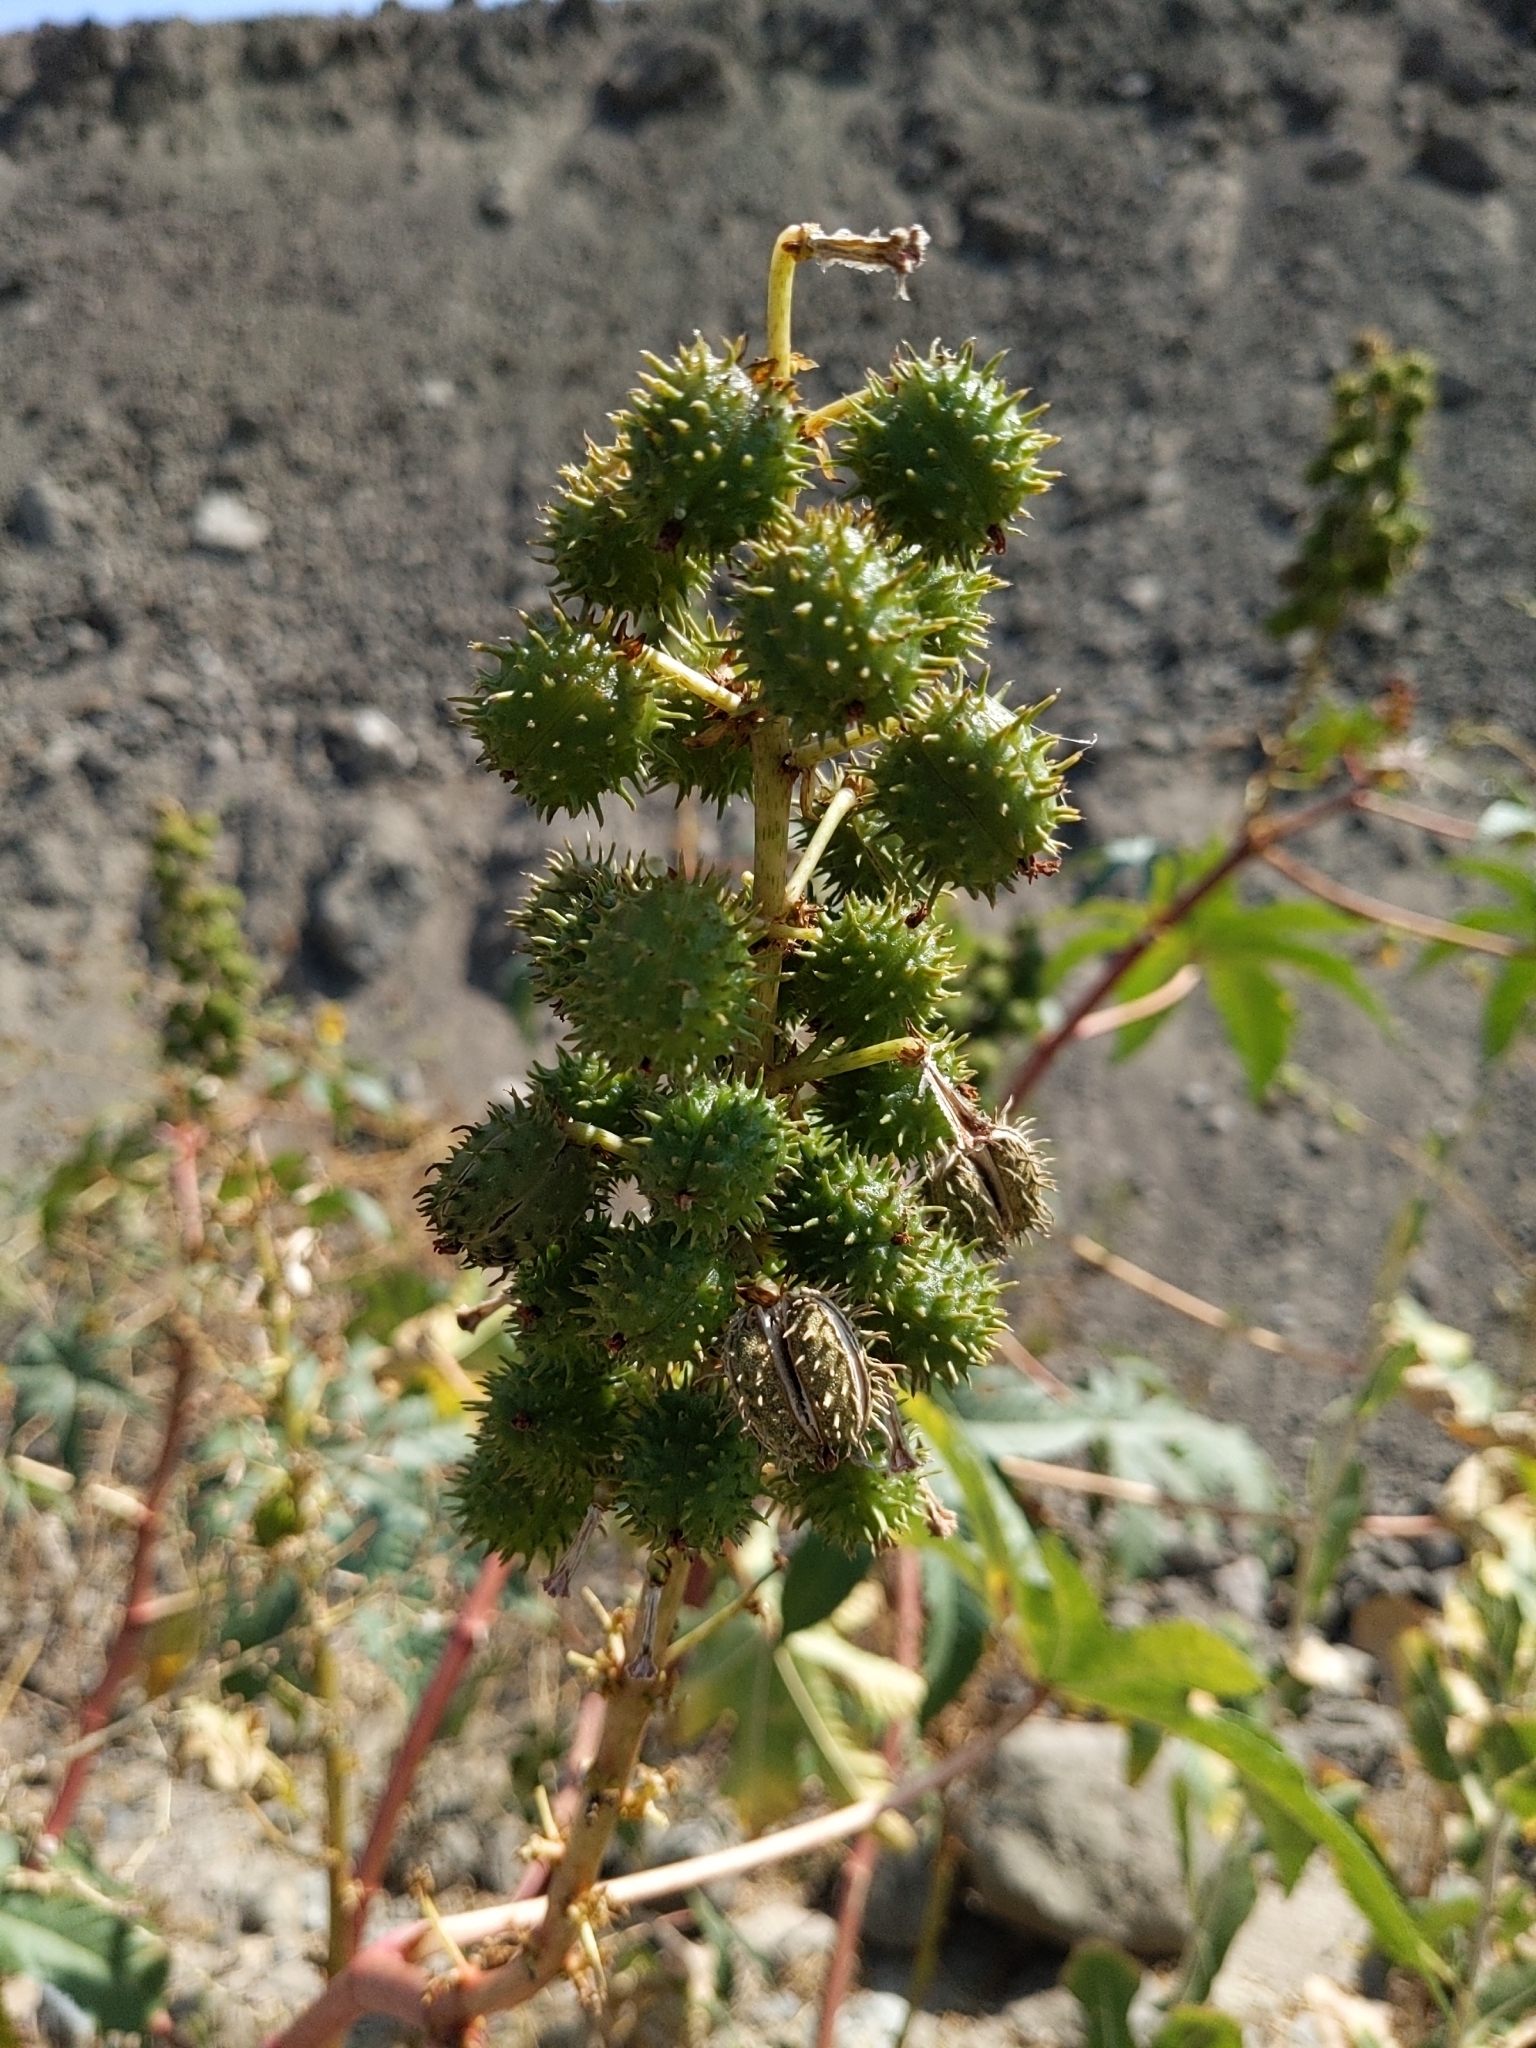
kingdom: Plantae
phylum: Tracheophyta
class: Magnoliopsida
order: Malpighiales
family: Euphorbiaceae
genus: Ricinus
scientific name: Ricinus communis
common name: Castor-oil-plant
